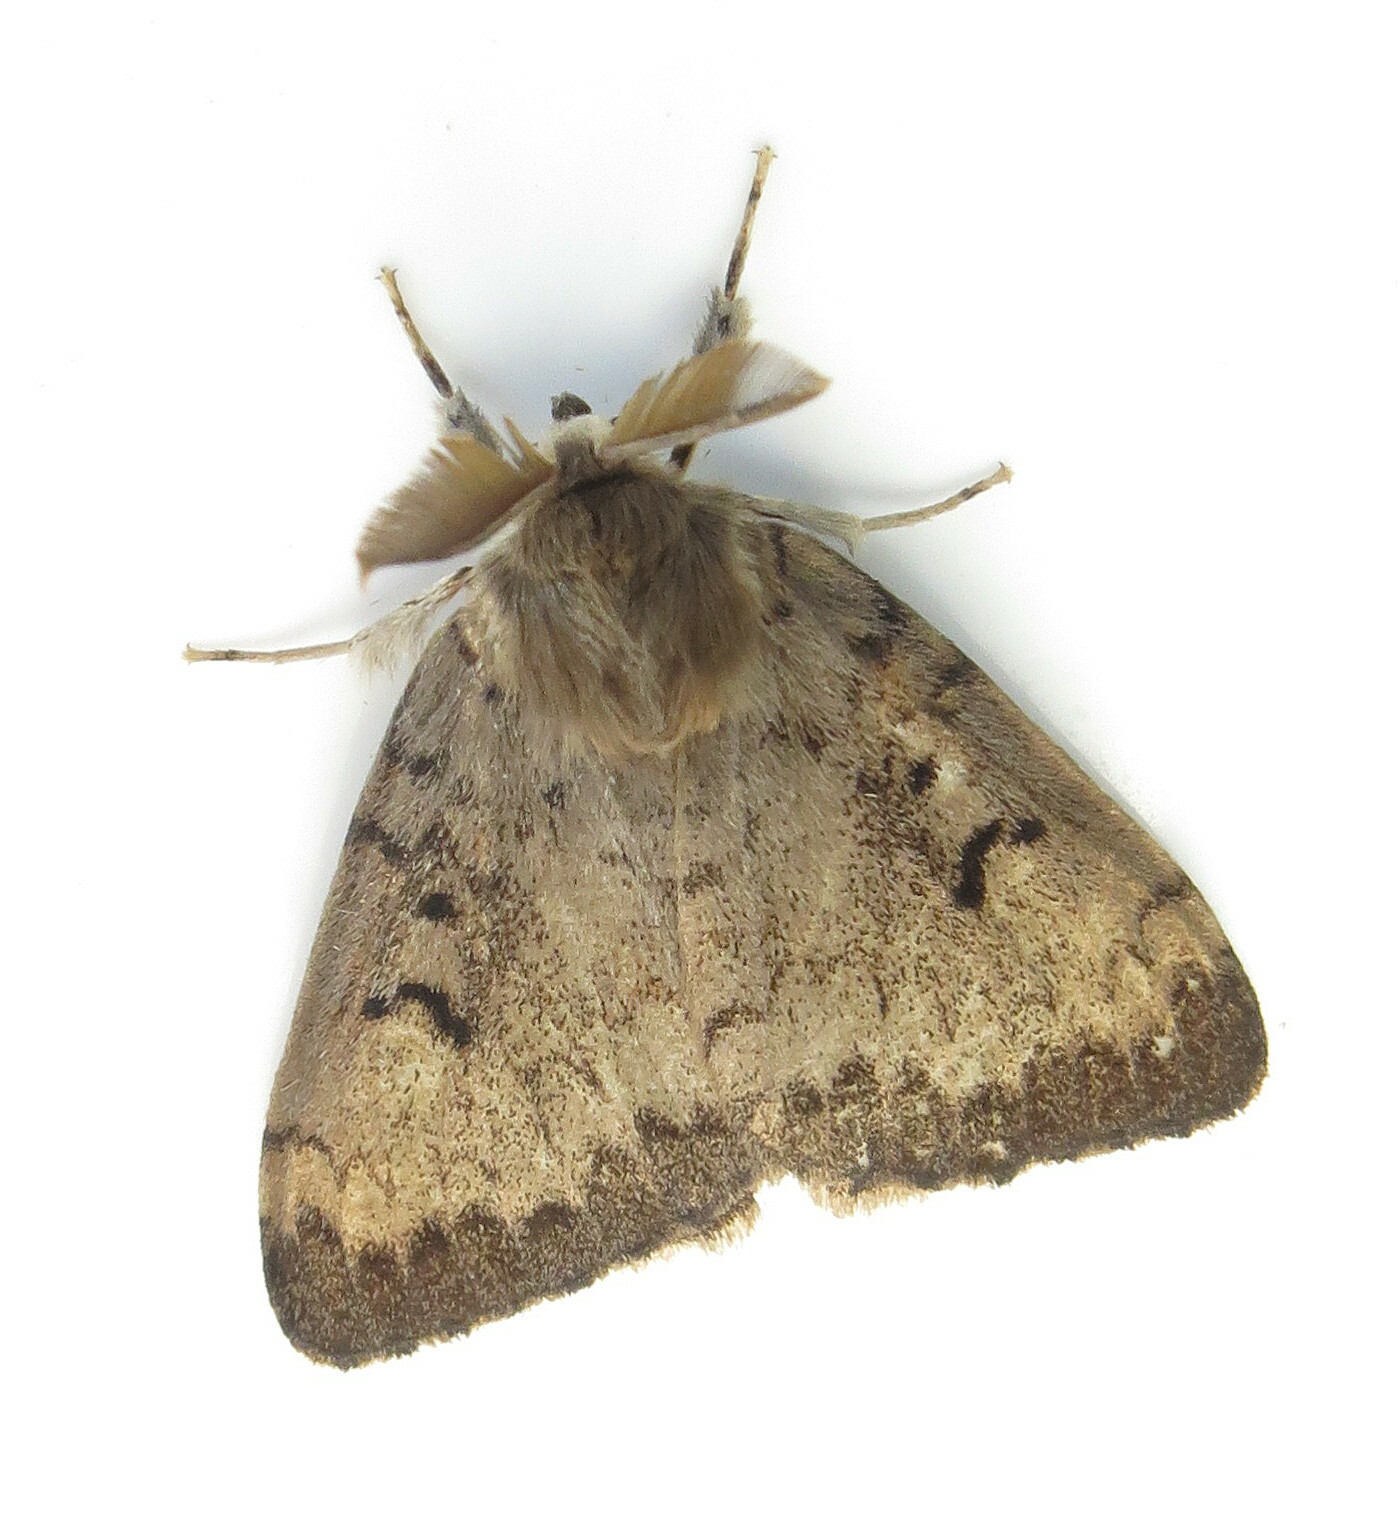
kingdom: Animalia
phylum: Arthropoda
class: Insecta
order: Lepidoptera
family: Erebidae
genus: Lymantria
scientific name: Lymantria dispar
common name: Gypsy moth
